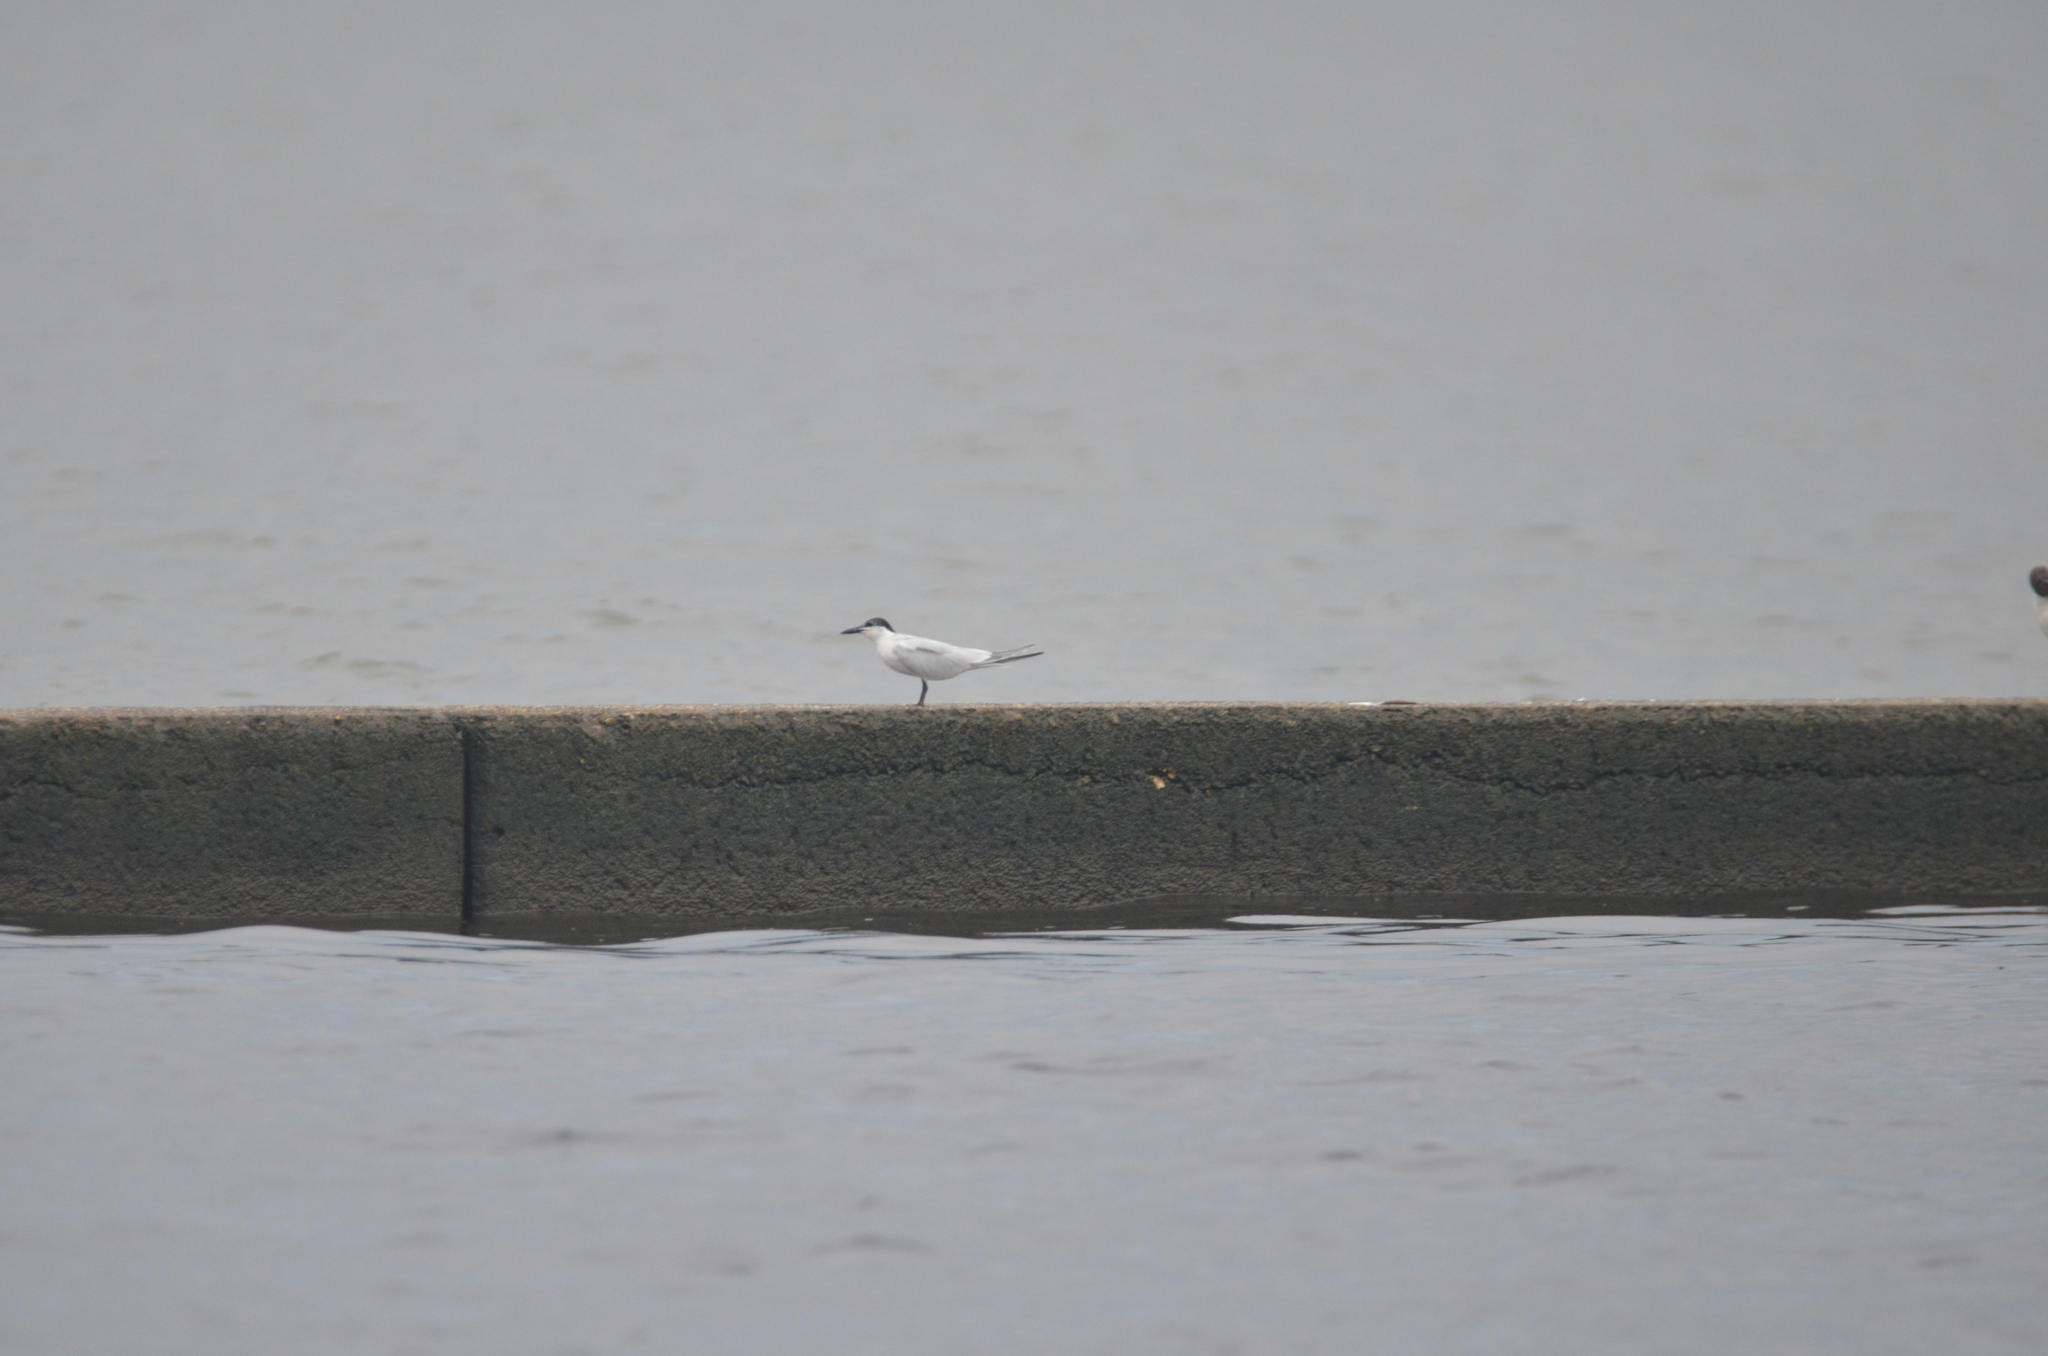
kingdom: Animalia
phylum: Chordata
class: Aves
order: Charadriiformes
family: Laridae
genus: Gelochelidon
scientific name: Gelochelidon nilotica
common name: Gull-billed tern
